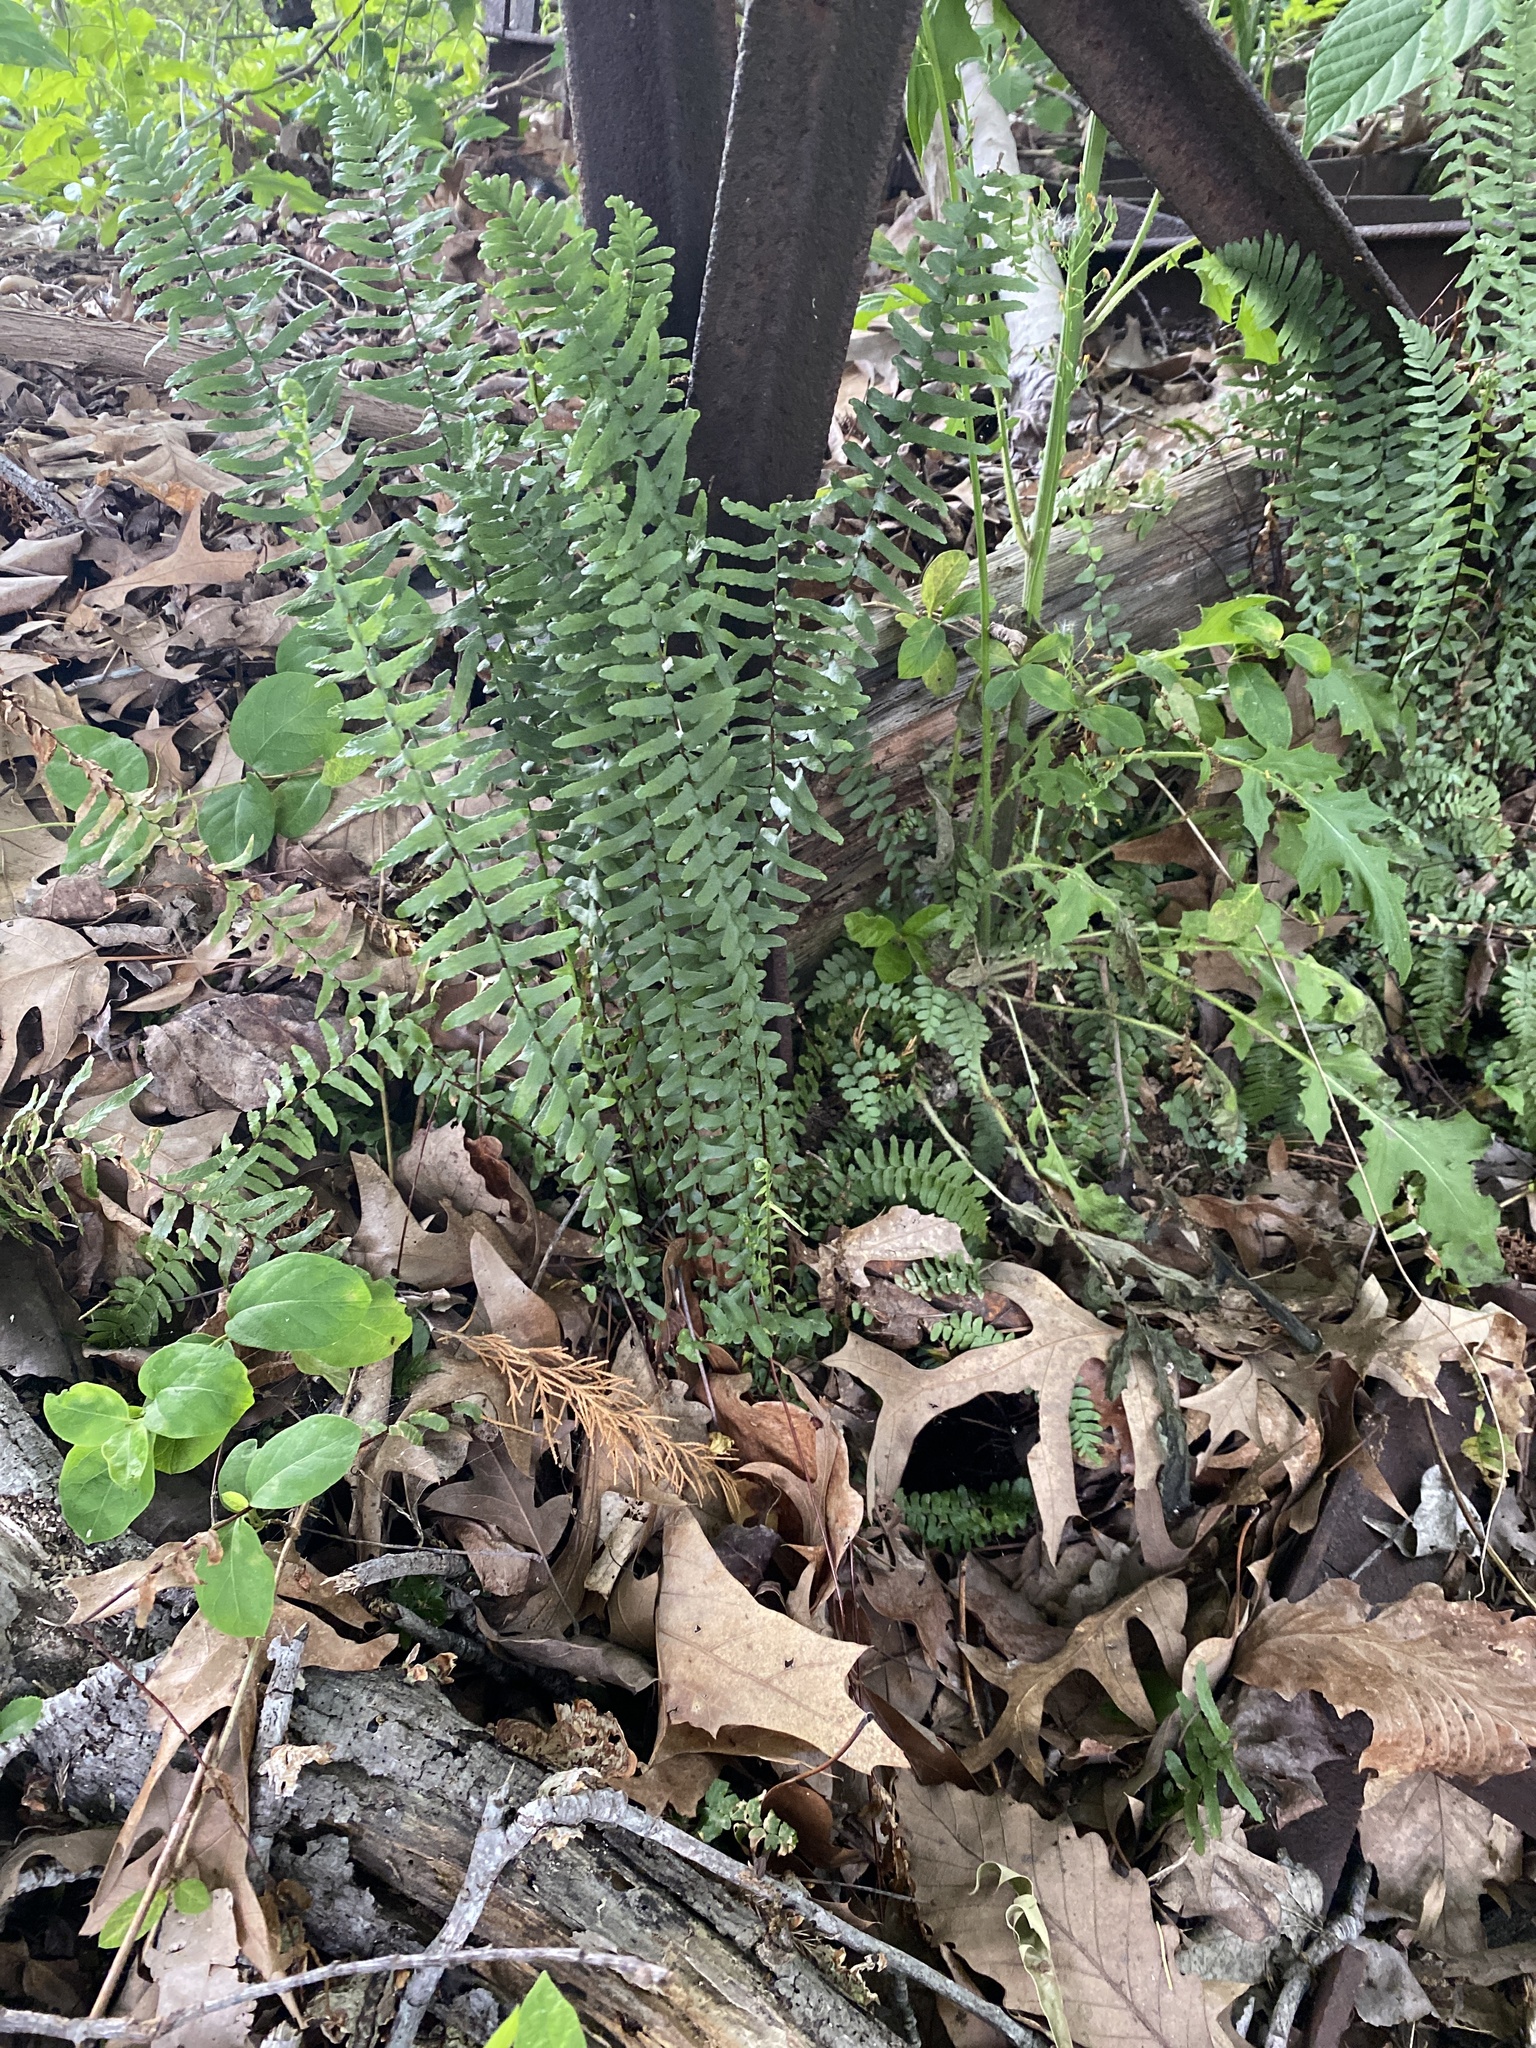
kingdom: Plantae
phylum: Tracheophyta
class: Polypodiopsida
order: Polypodiales
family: Aspleniaceae
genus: Asplenium
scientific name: Asplenium platyneuron
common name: Ebony spleenwort
